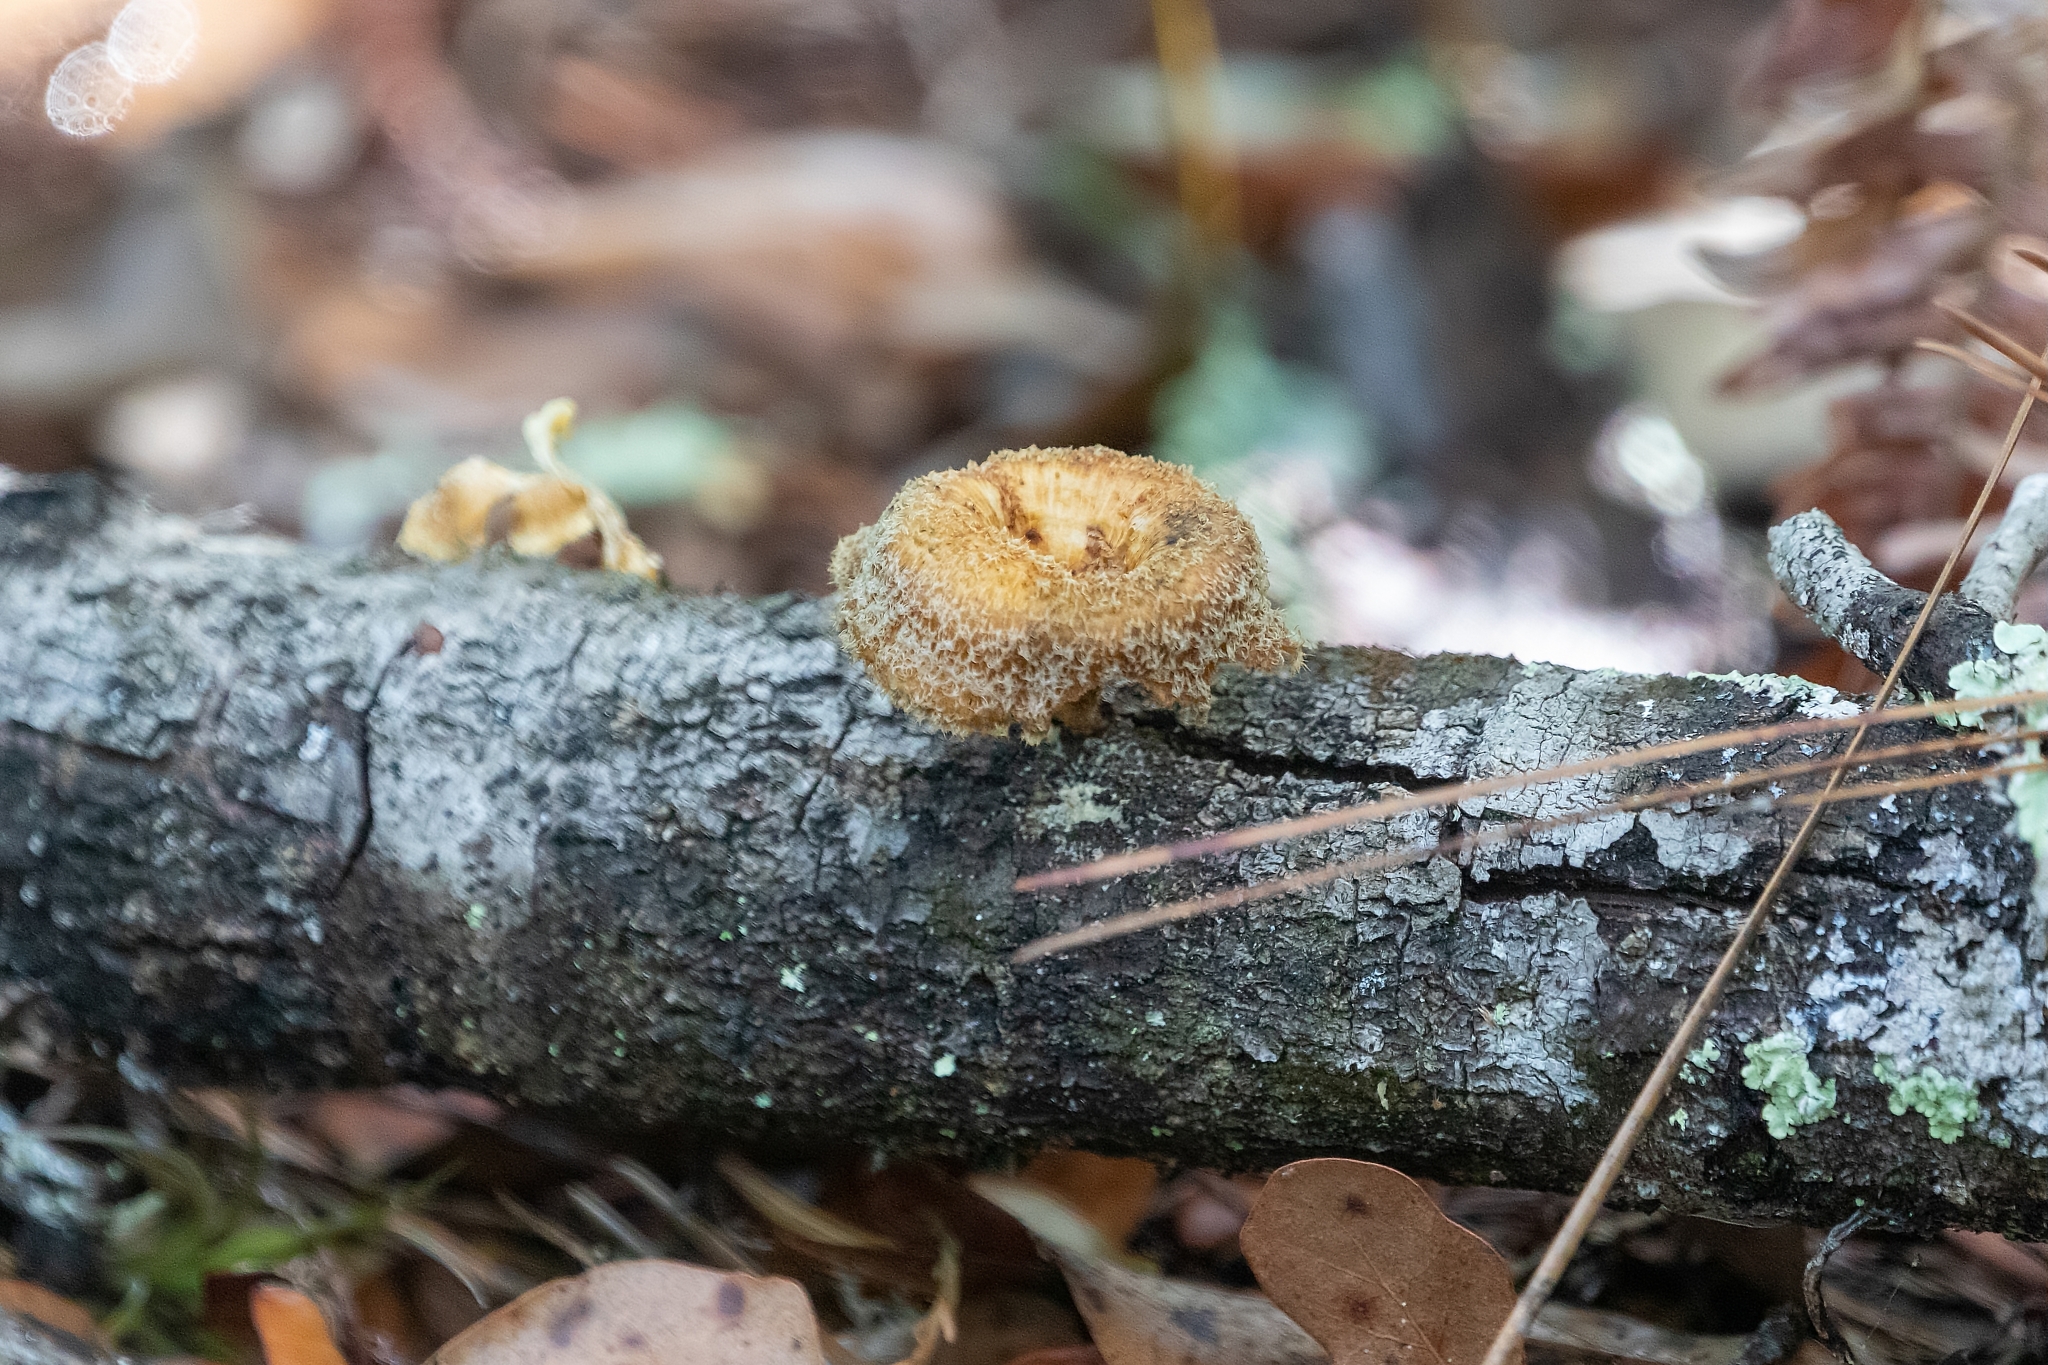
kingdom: Fungi
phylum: Basidiomycota
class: Agaricomycetes
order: Polyporales
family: Polyporaceae
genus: Lentinus
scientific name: Lentinus crinitus
